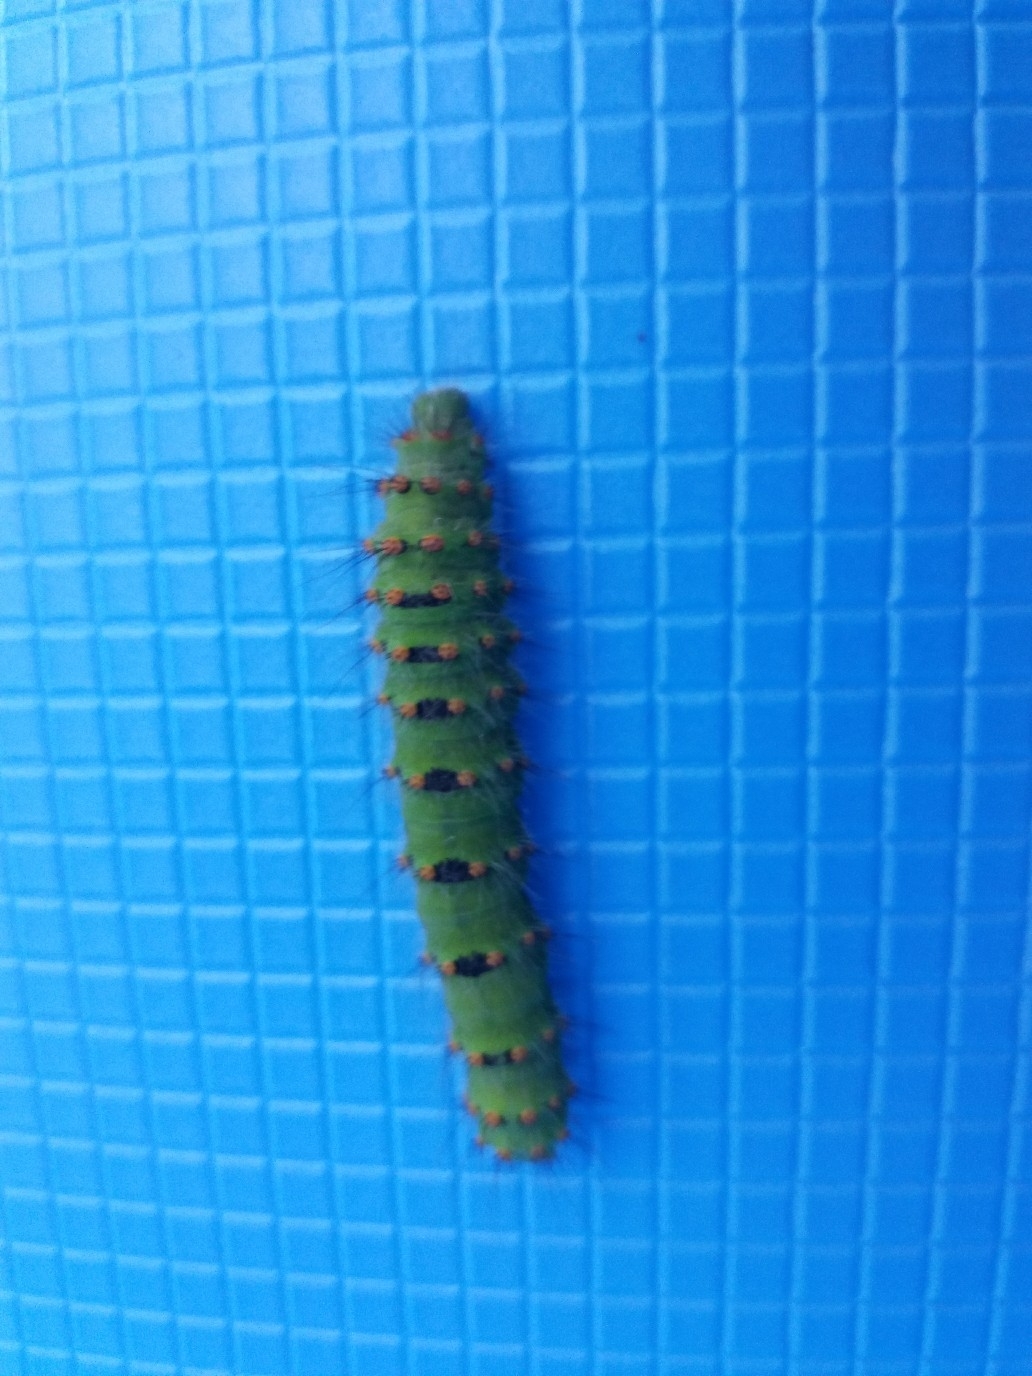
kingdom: Animalia
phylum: Arthropoda
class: Insecta
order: Lepidoptera
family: Saturniidae
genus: Saturnia
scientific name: Saturnia pavonia
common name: Emperor moth
